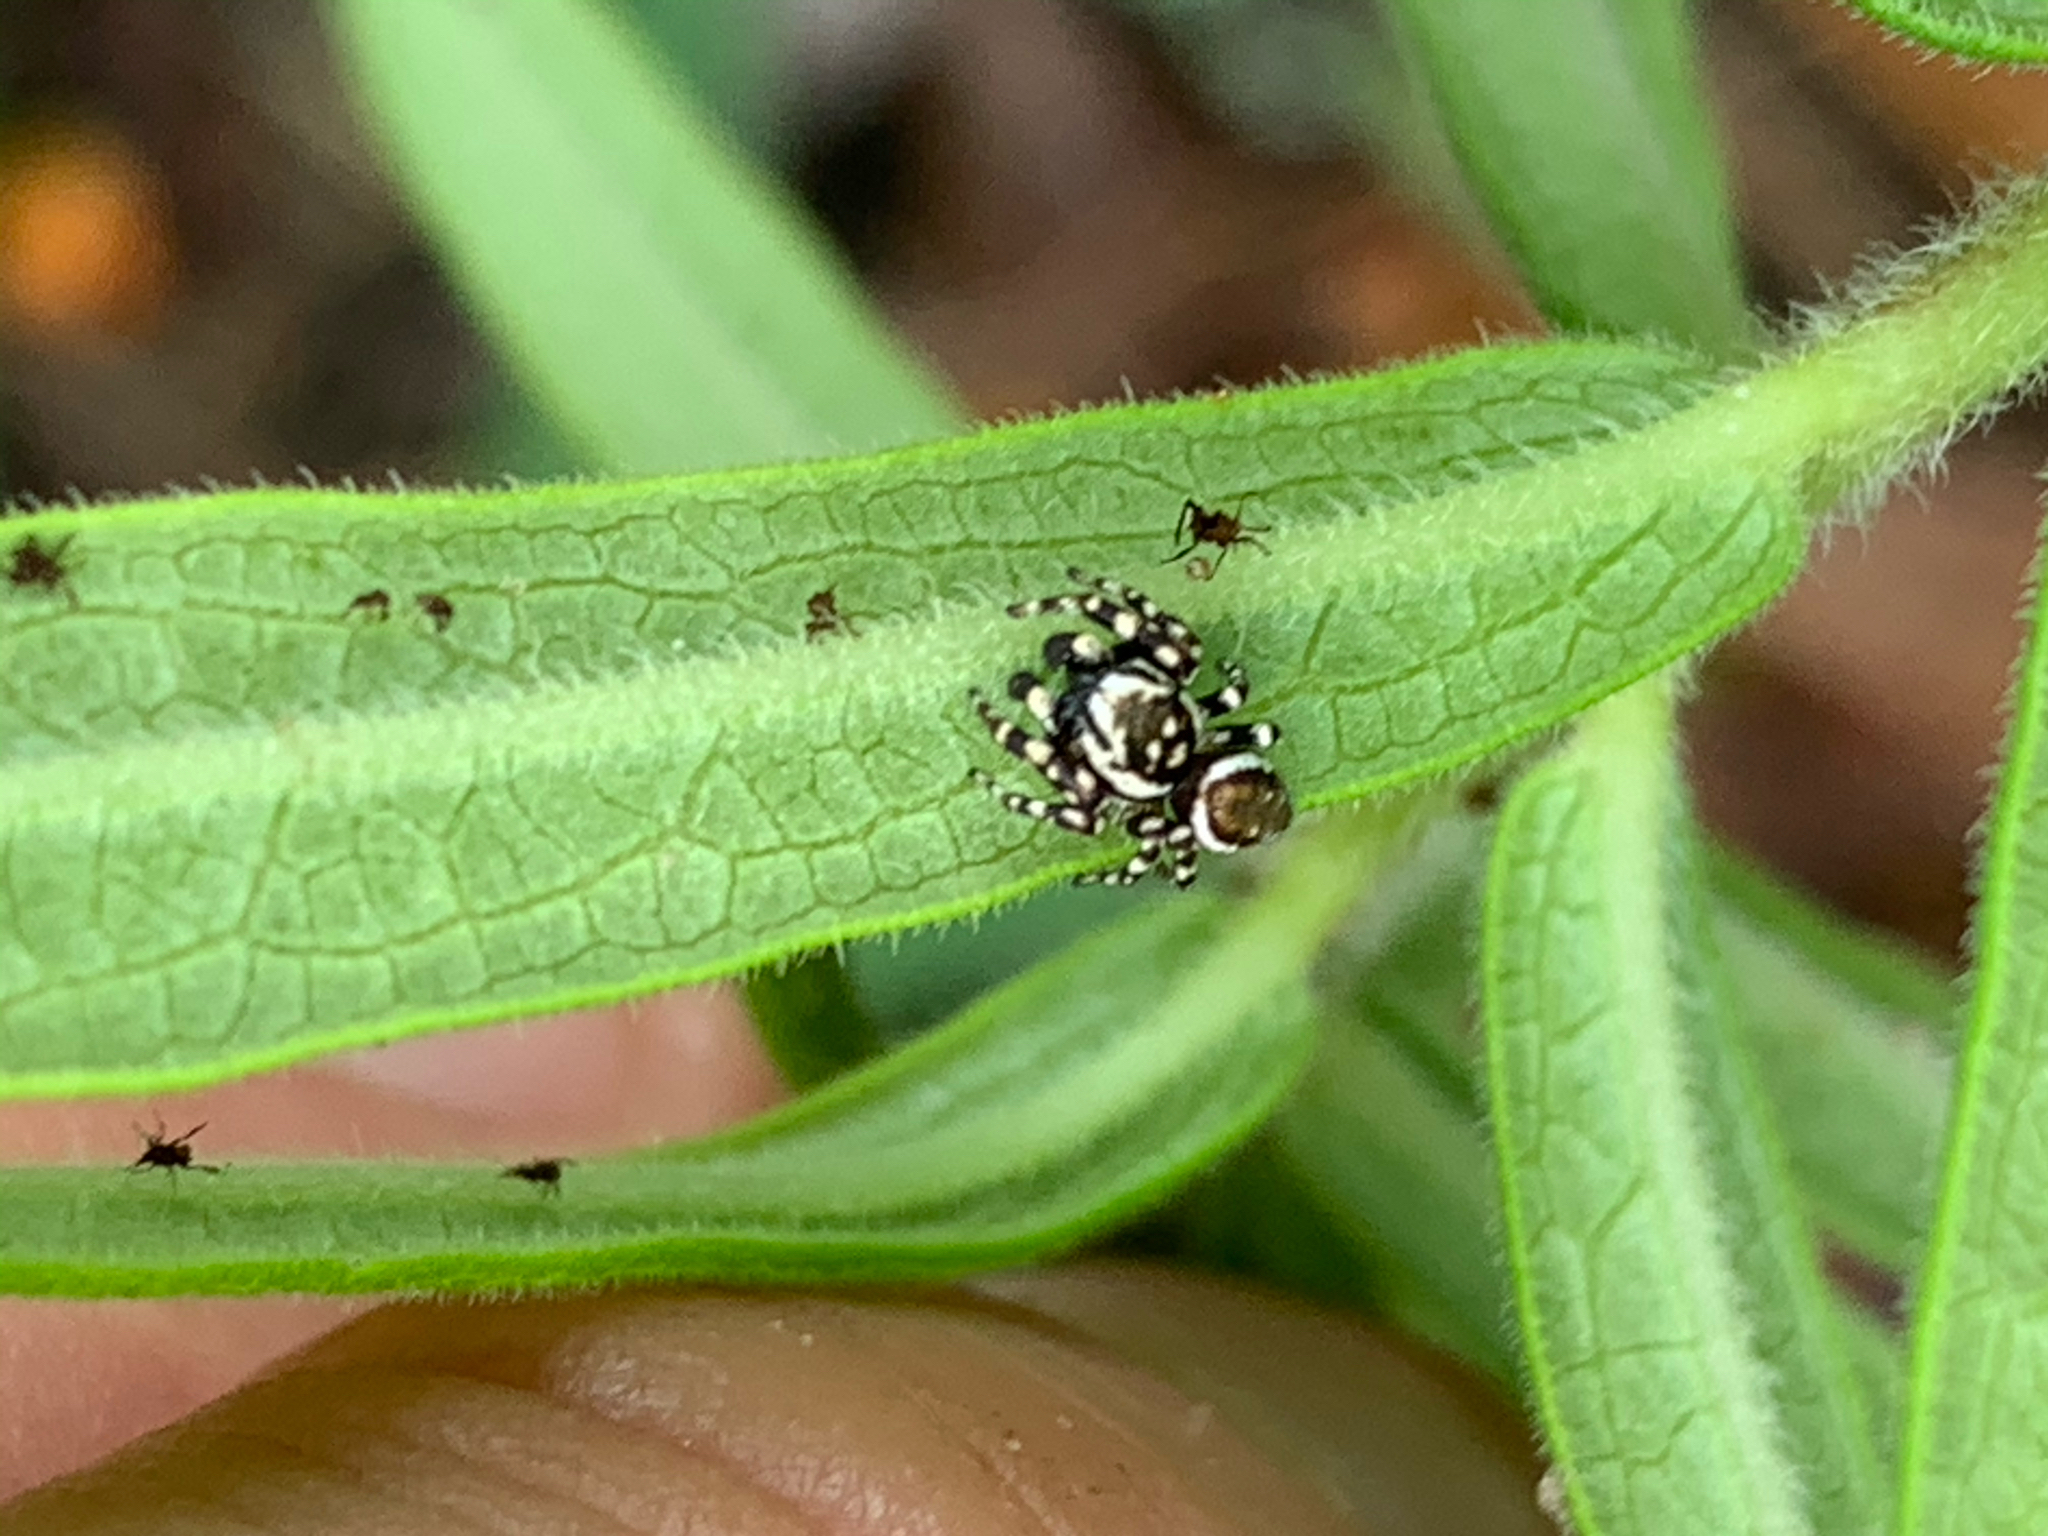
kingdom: Animalia
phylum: Arthropoda
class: Arachnida
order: Araneae
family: Salticidae
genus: Pelegrina
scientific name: Pelegrina galathea
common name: Jumping spiders
